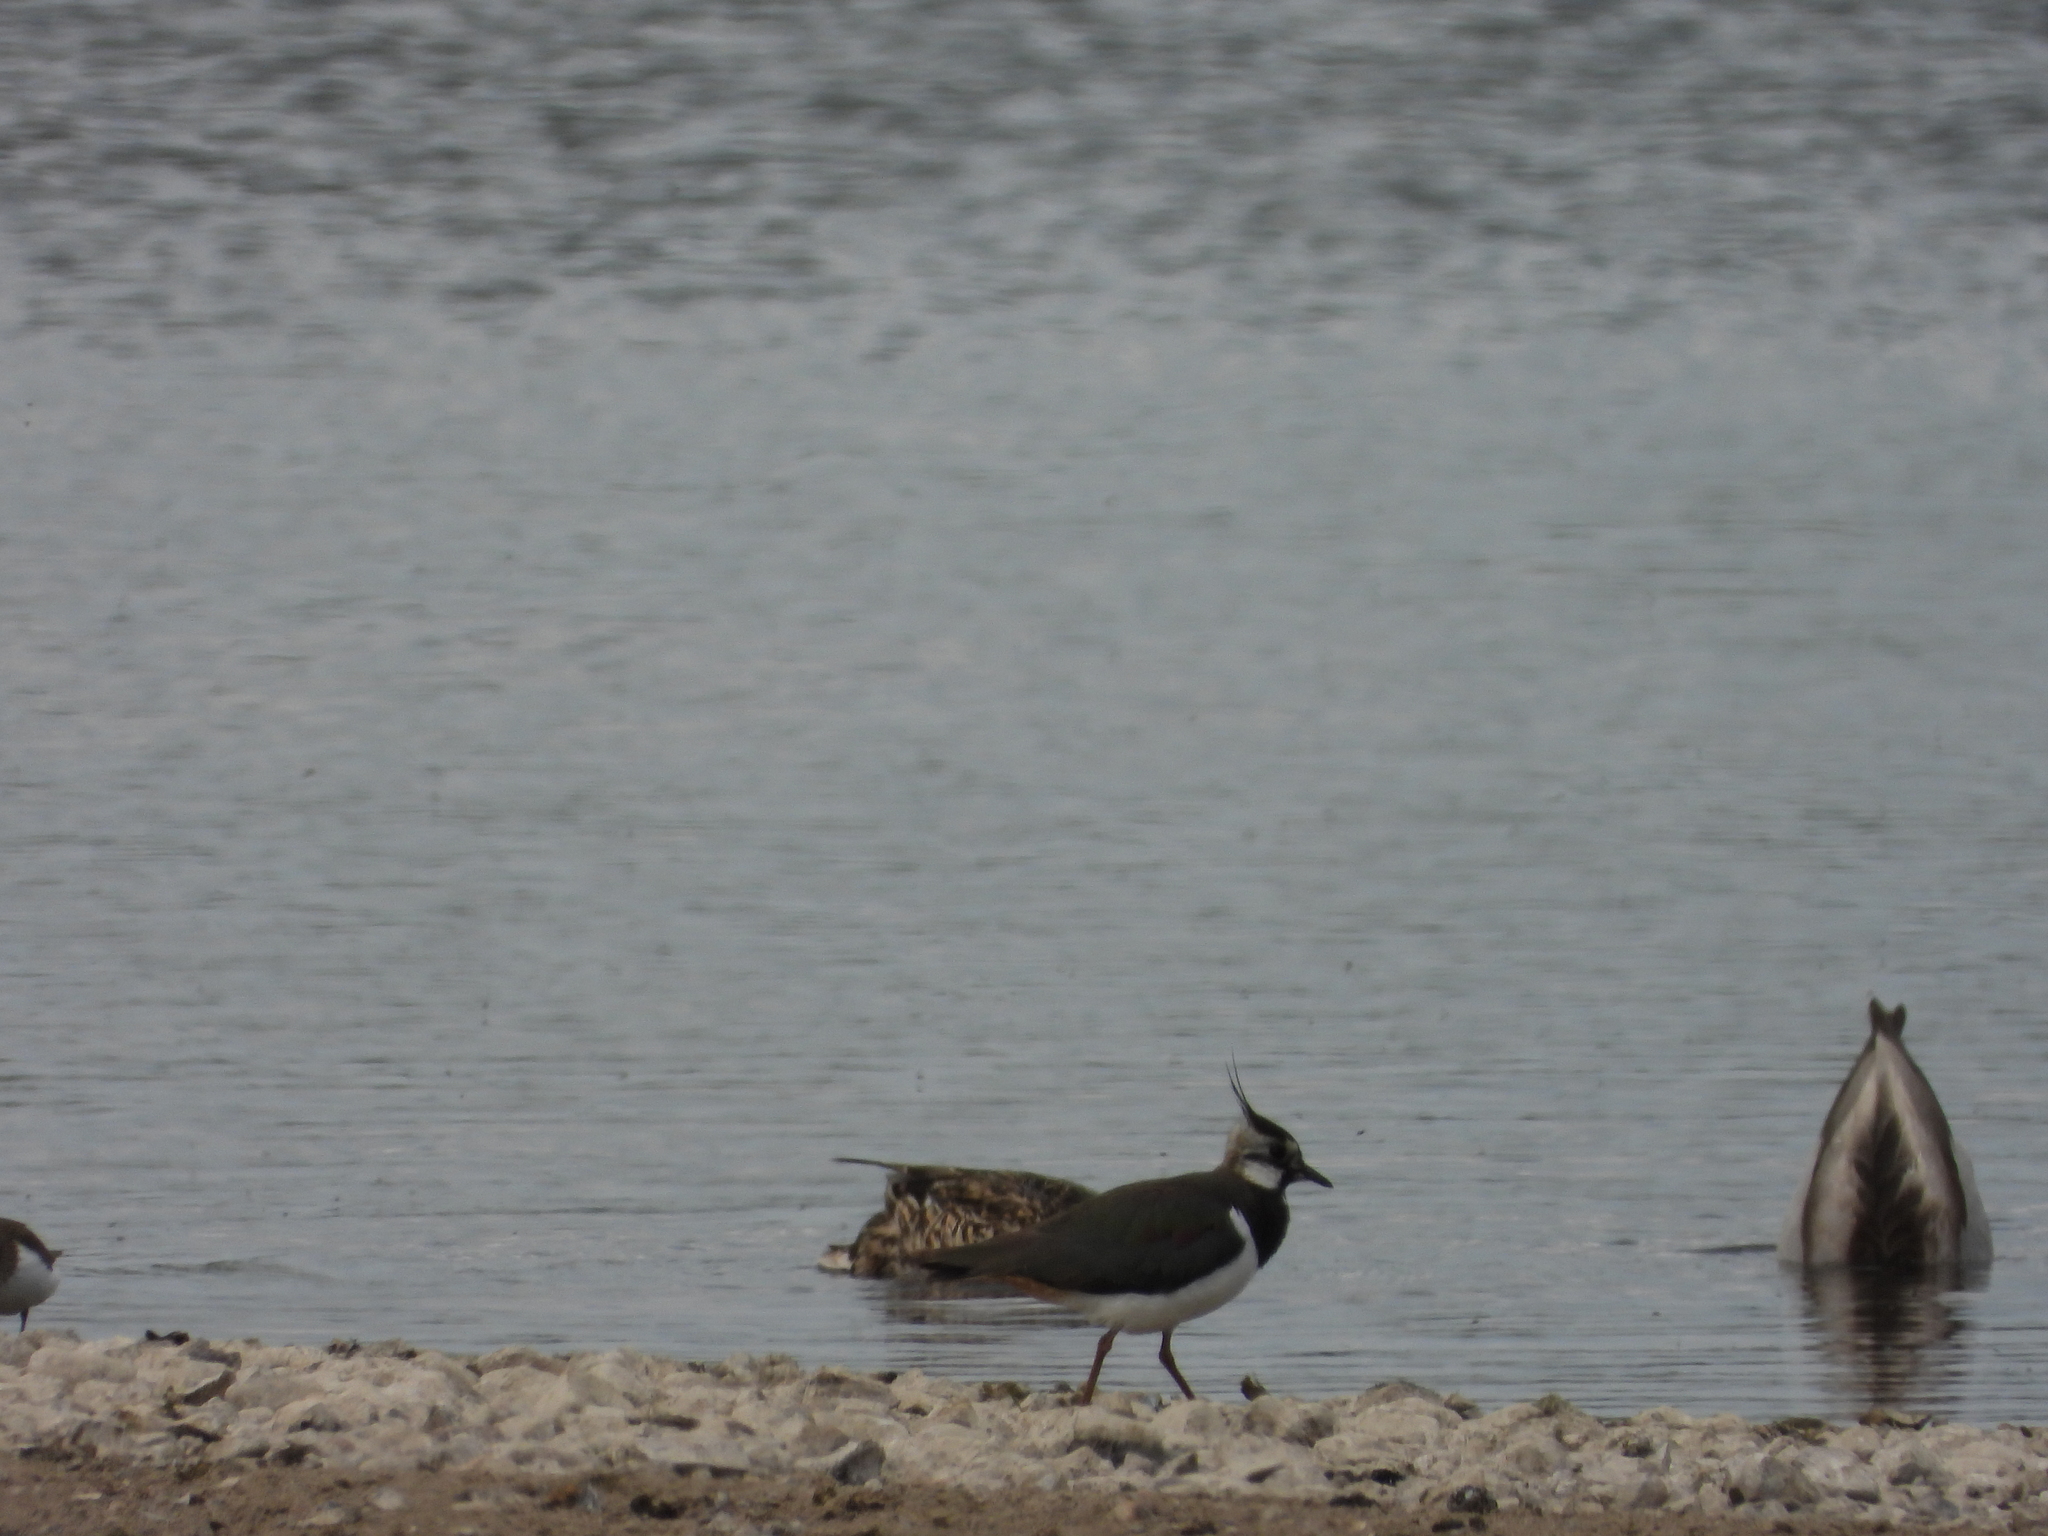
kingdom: Animalia
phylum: Chordata
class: Aves
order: Charadriiformes
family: Charadriidae
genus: Vanellus
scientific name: Vanellus vanellus
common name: Northern lapwing
